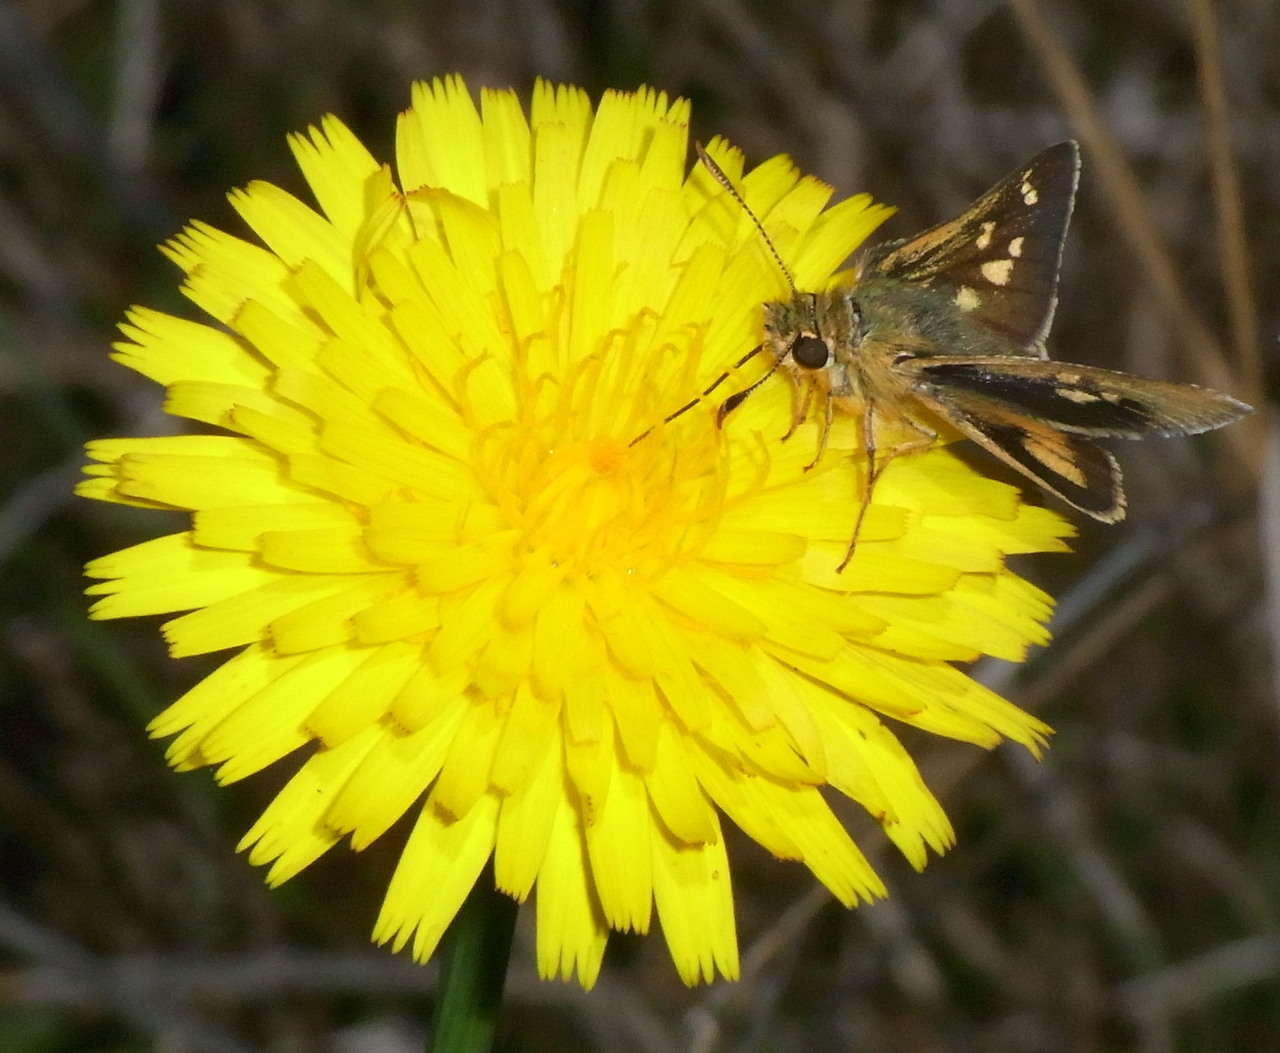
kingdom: Animalia
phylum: Arthropoda
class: Insecta
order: Lepidoptera
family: Hesperiidae
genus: Trapezites
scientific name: Trapezites lutea
